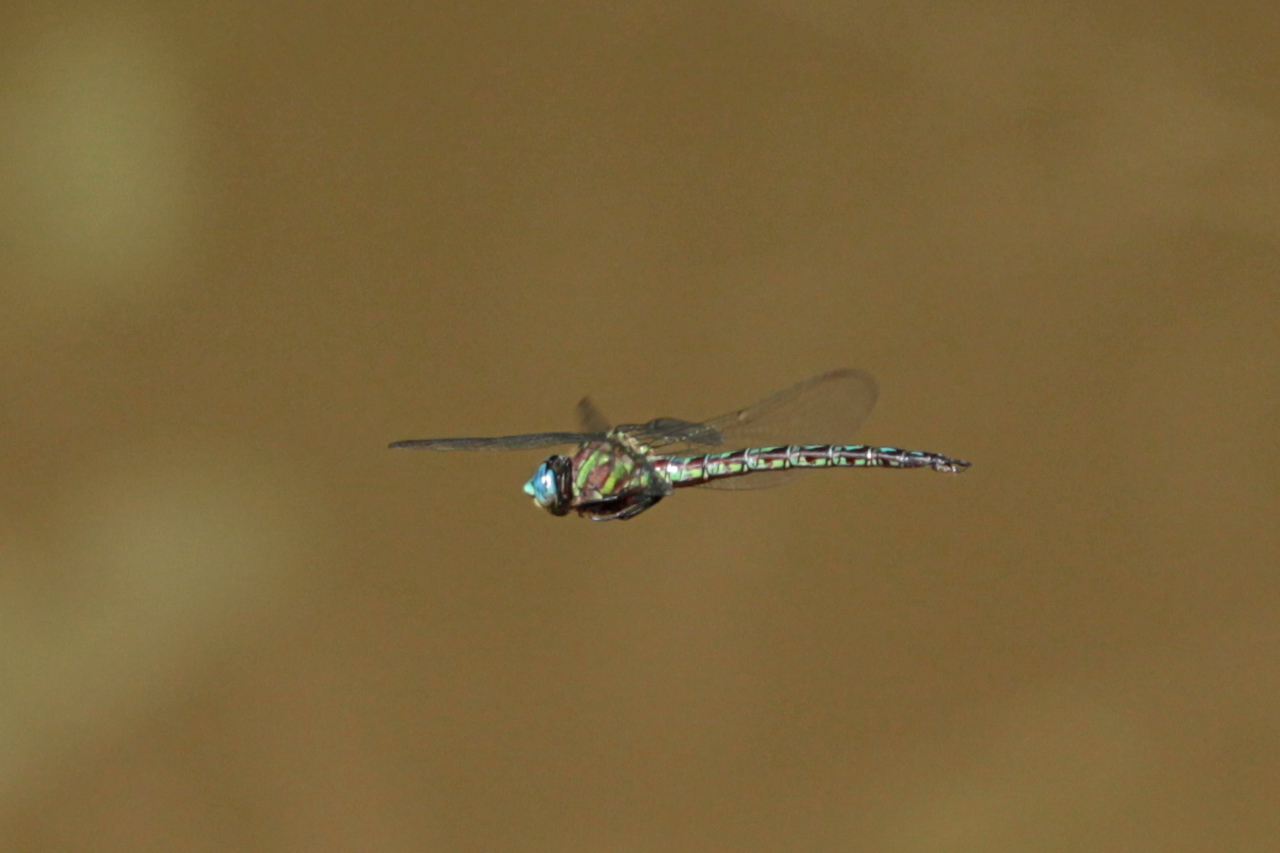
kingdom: Animalia
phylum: Arthropoda
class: Insecta
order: Odonata
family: Aeshnidae
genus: Nasiaeschna
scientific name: Nasiaeschna pentacantha
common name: Cyrano darner
